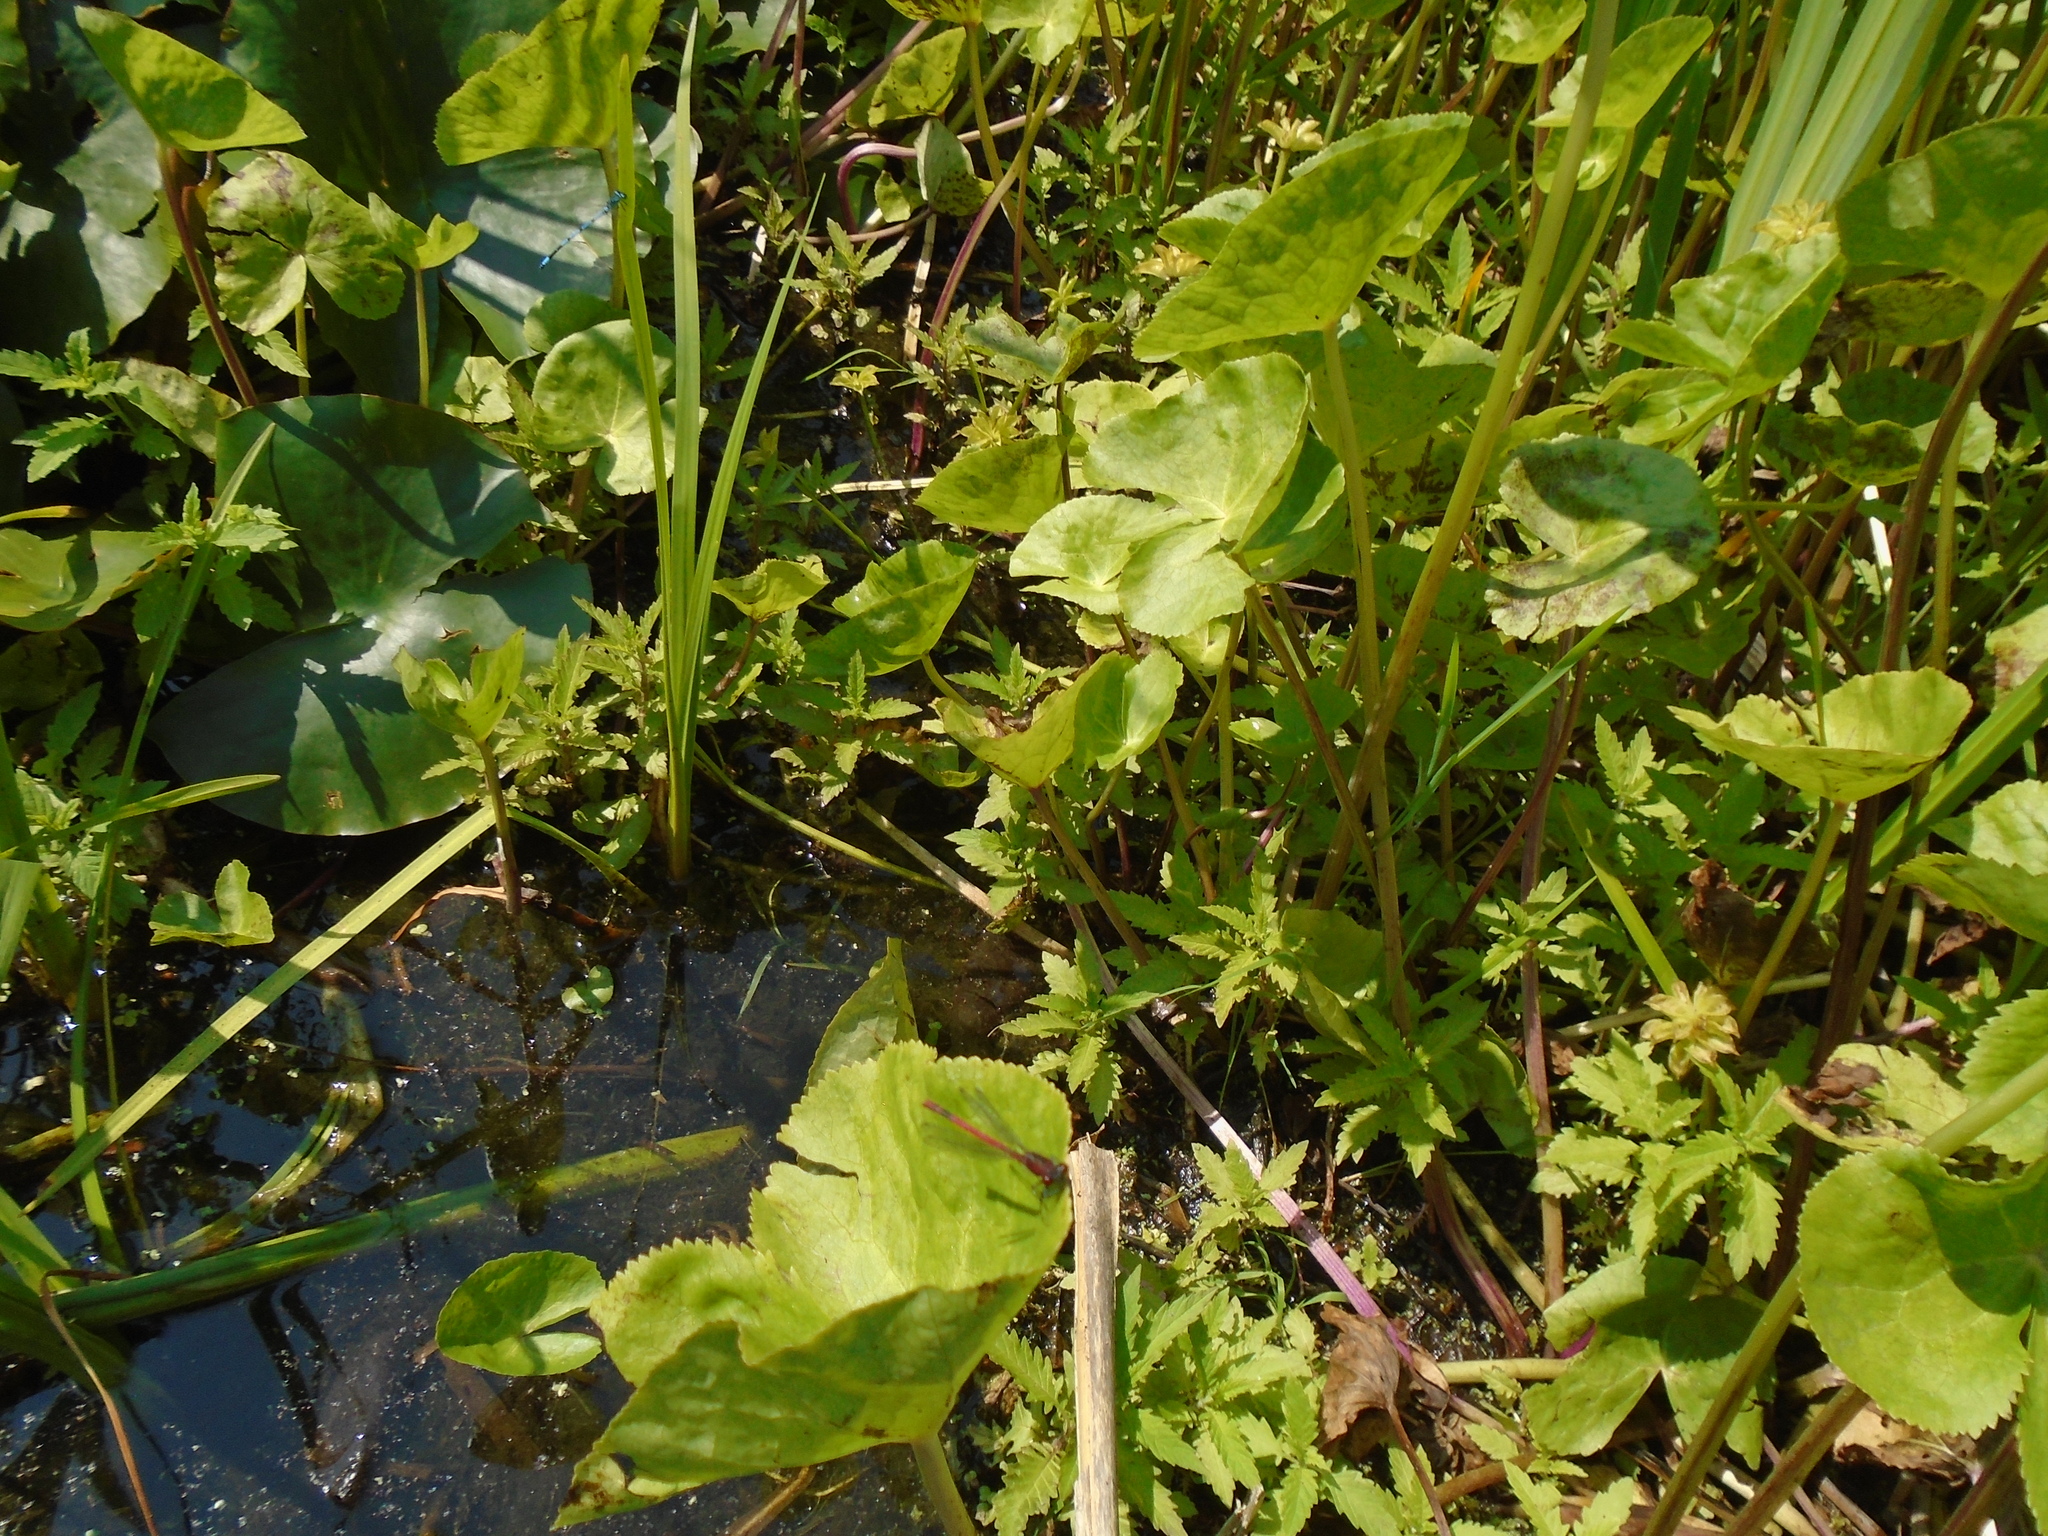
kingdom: Animalia
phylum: Arthropoda
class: Insecta
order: Odonata
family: Coenagrionidae
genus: Pyrrhosoma
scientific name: Pyrrhosoma nymphula
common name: Large red damsel
